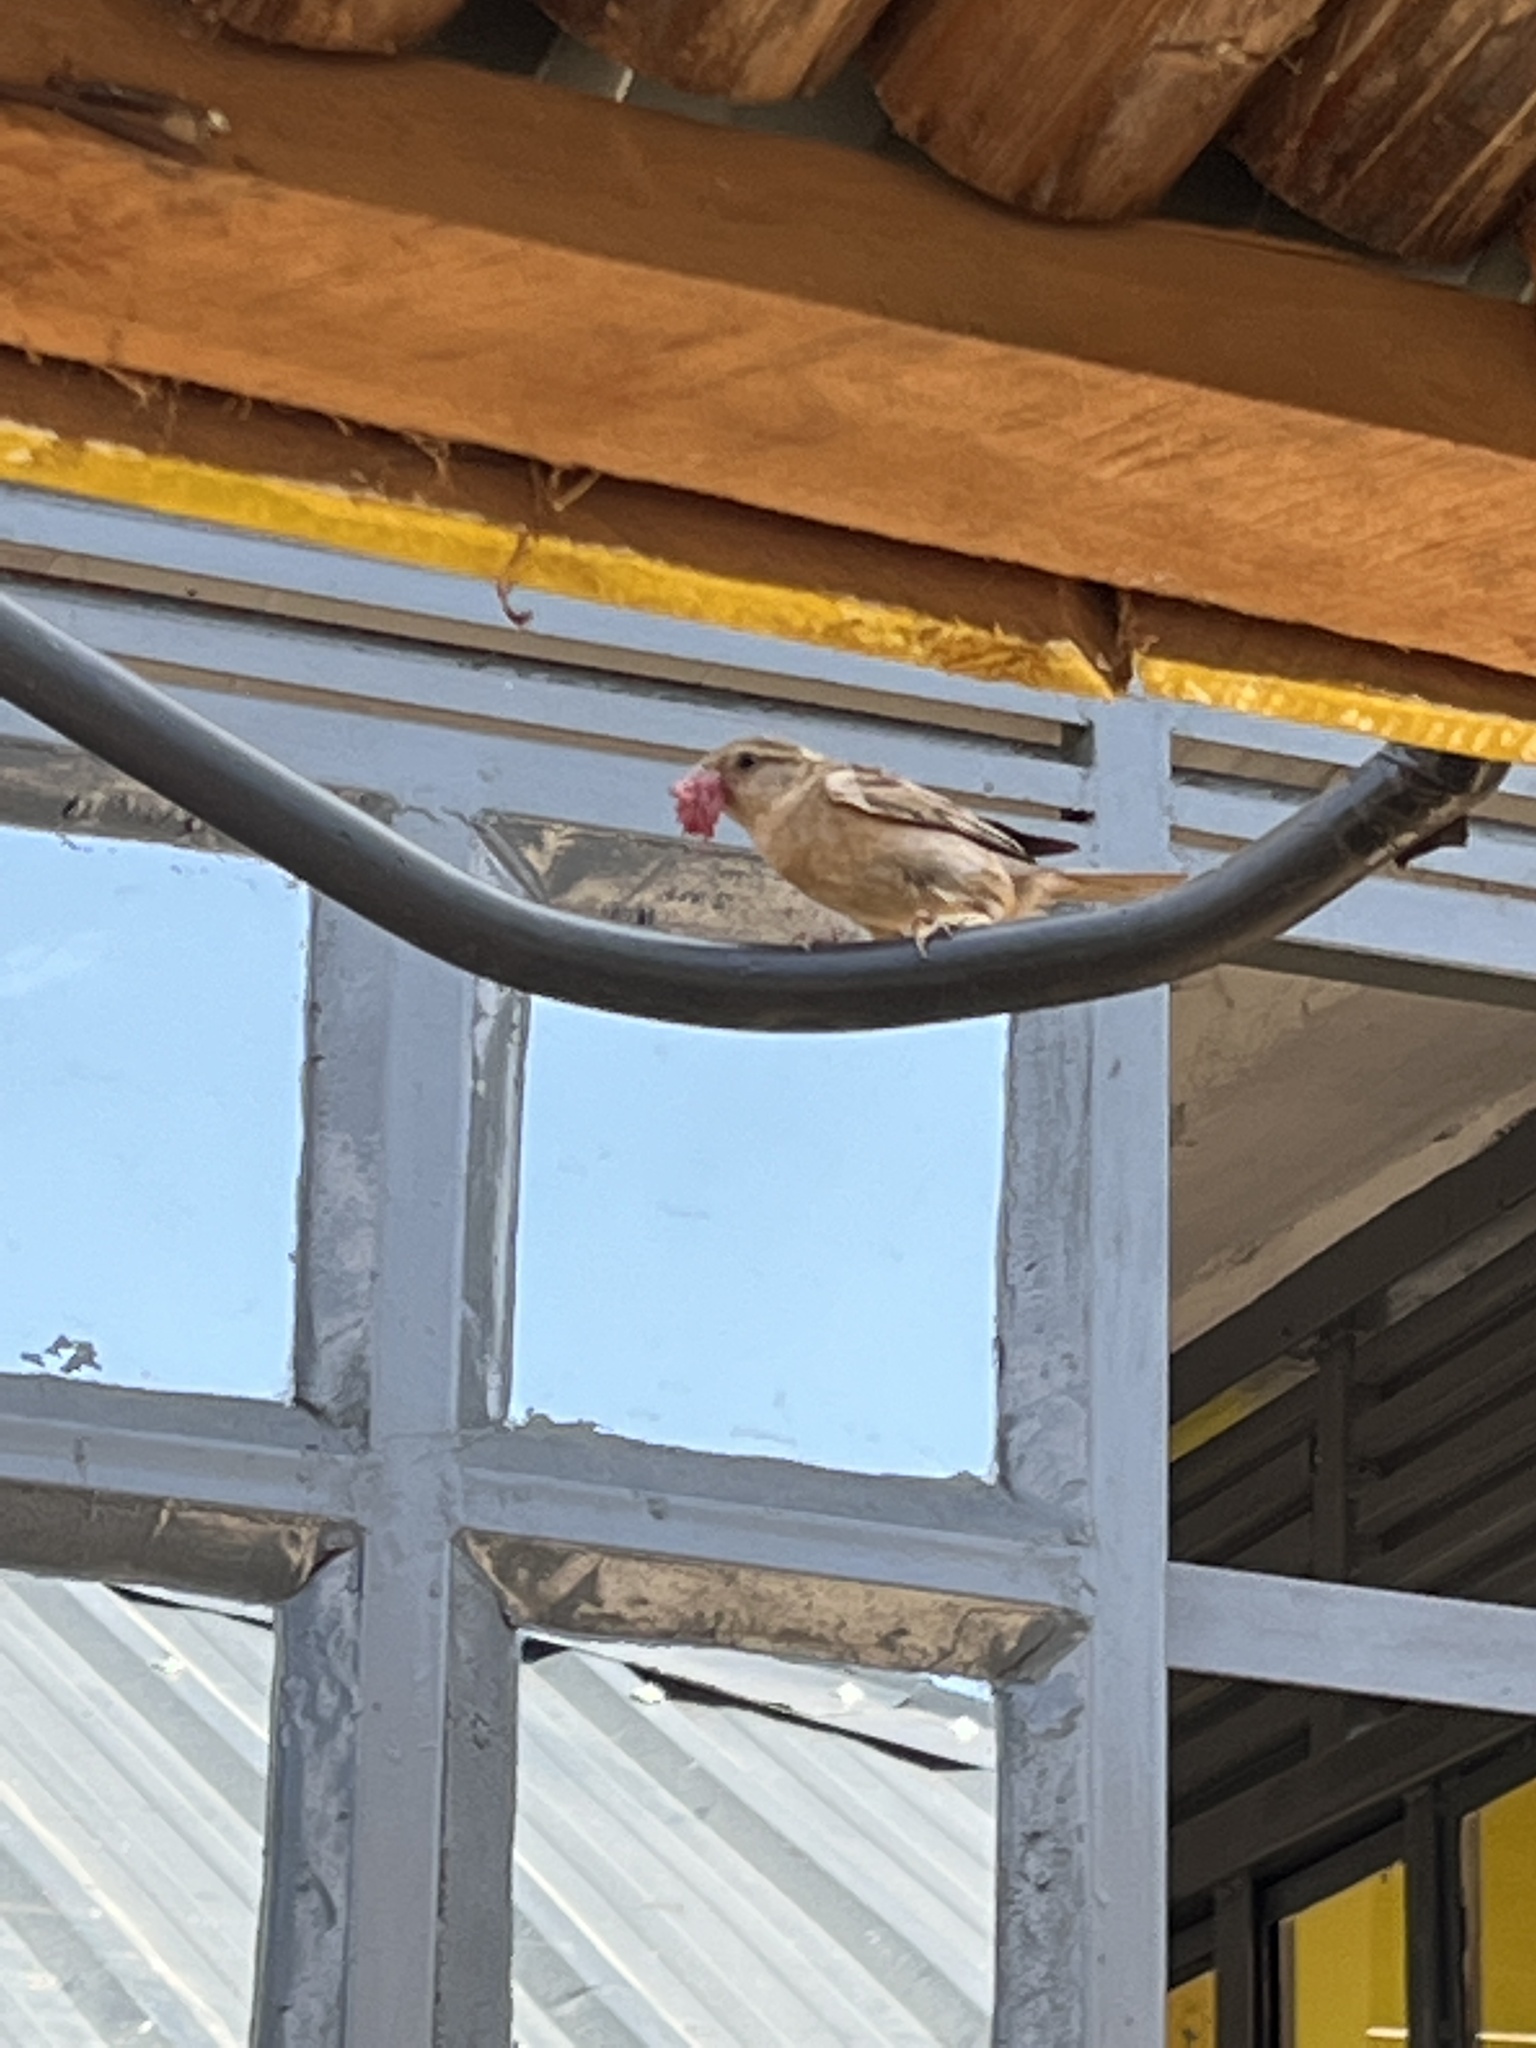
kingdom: Animalia
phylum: Chordata
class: Aves
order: Passeriformes
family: Passeridae
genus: Passer
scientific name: Passer domesticus
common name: House sparrow
